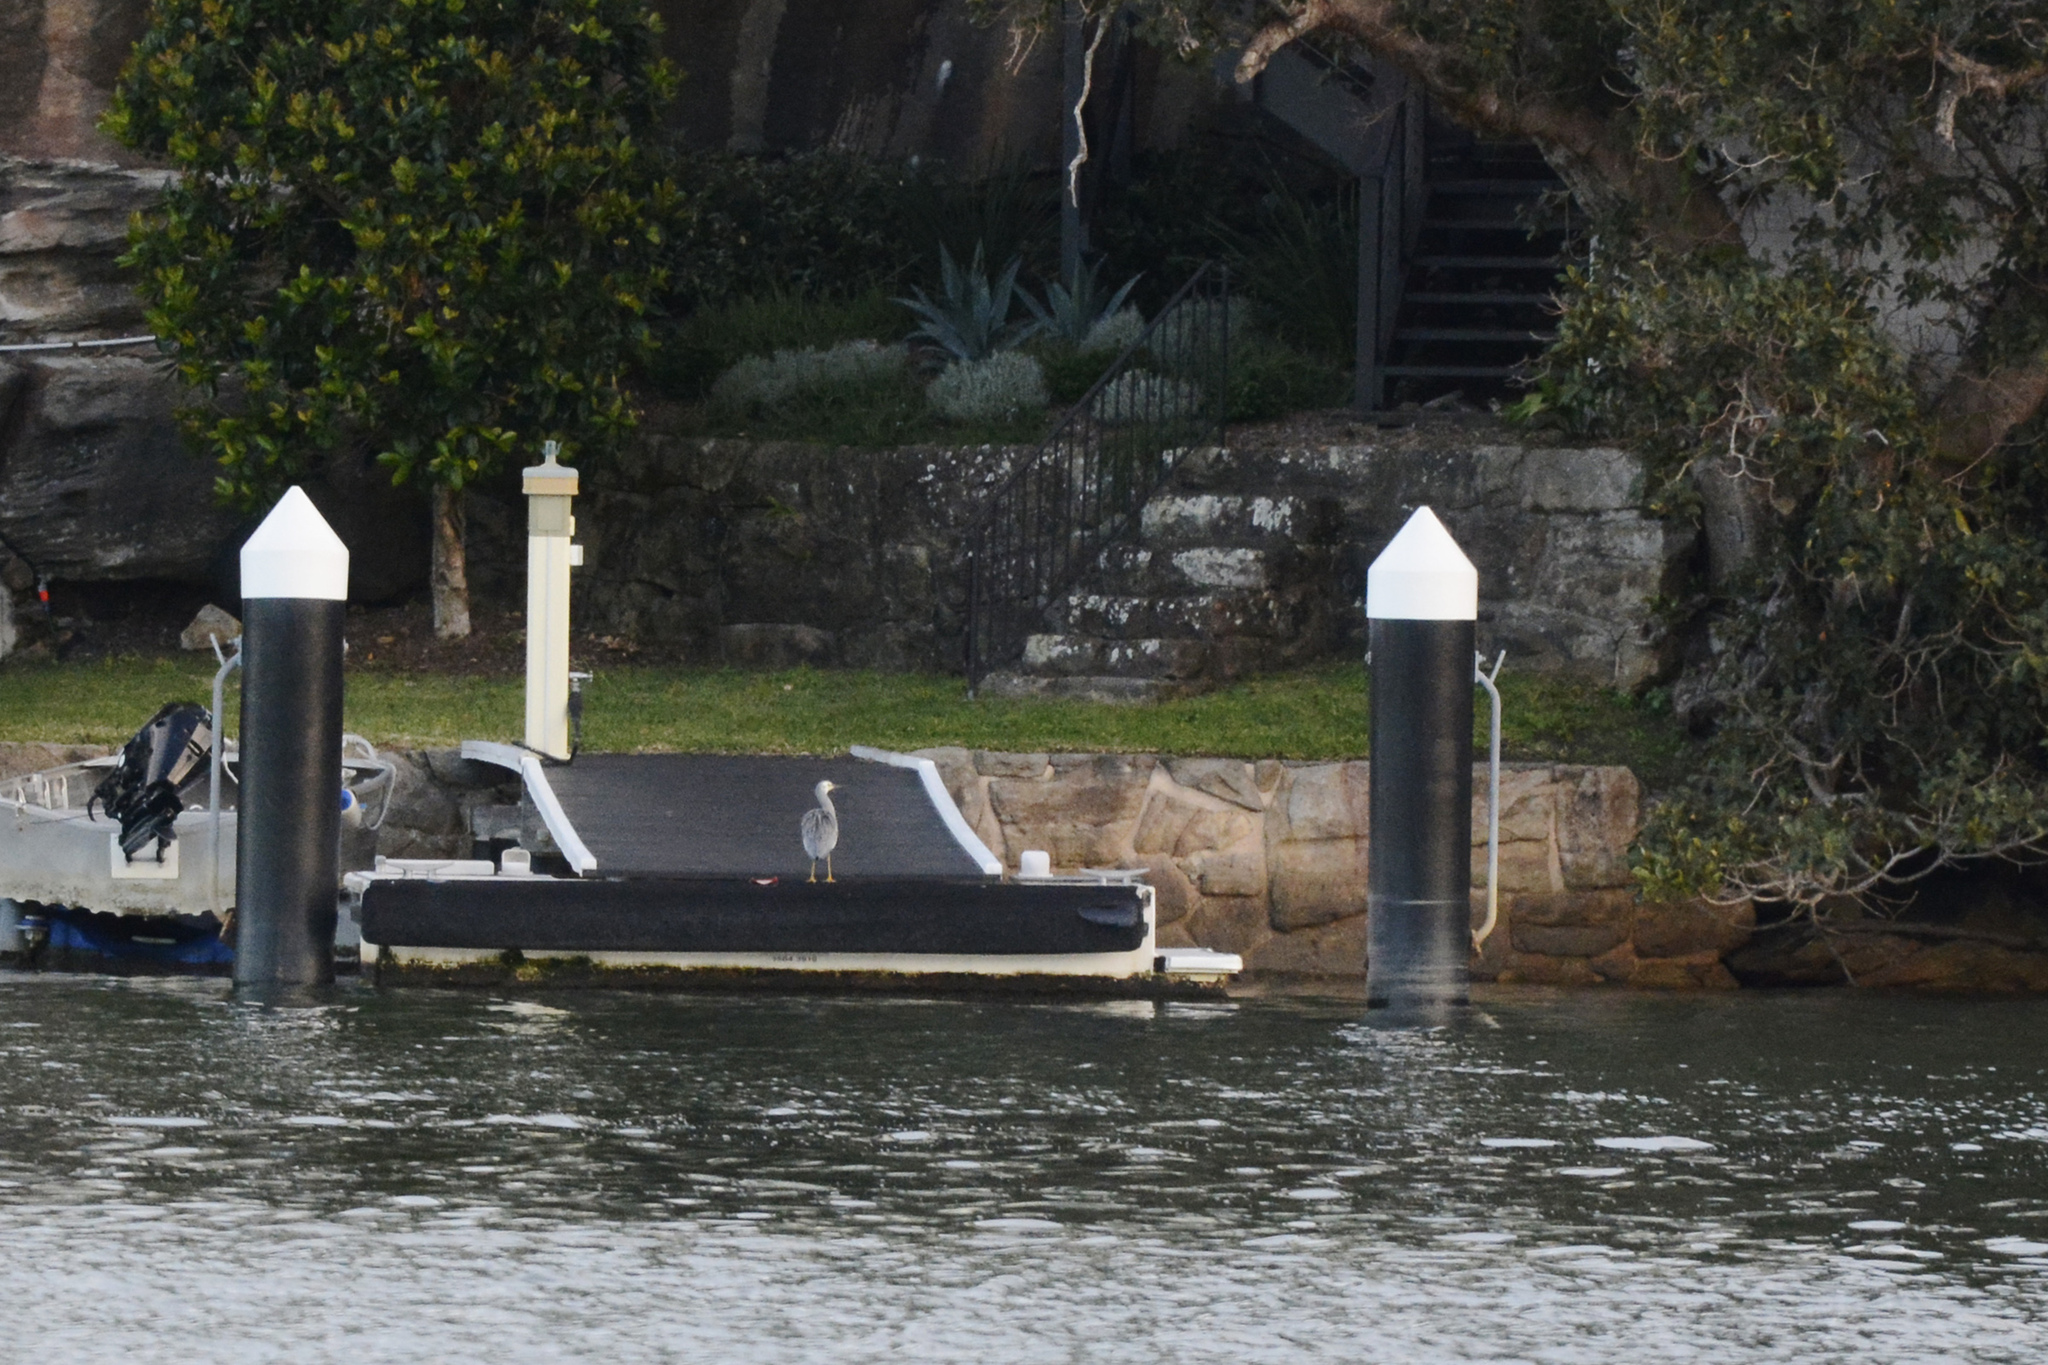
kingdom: Animalia
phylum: Chordata
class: Aves
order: Pelecaniformes
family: Ardeidae
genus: Egretta
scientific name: Egretta novaehollandiae
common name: White-faced heron
